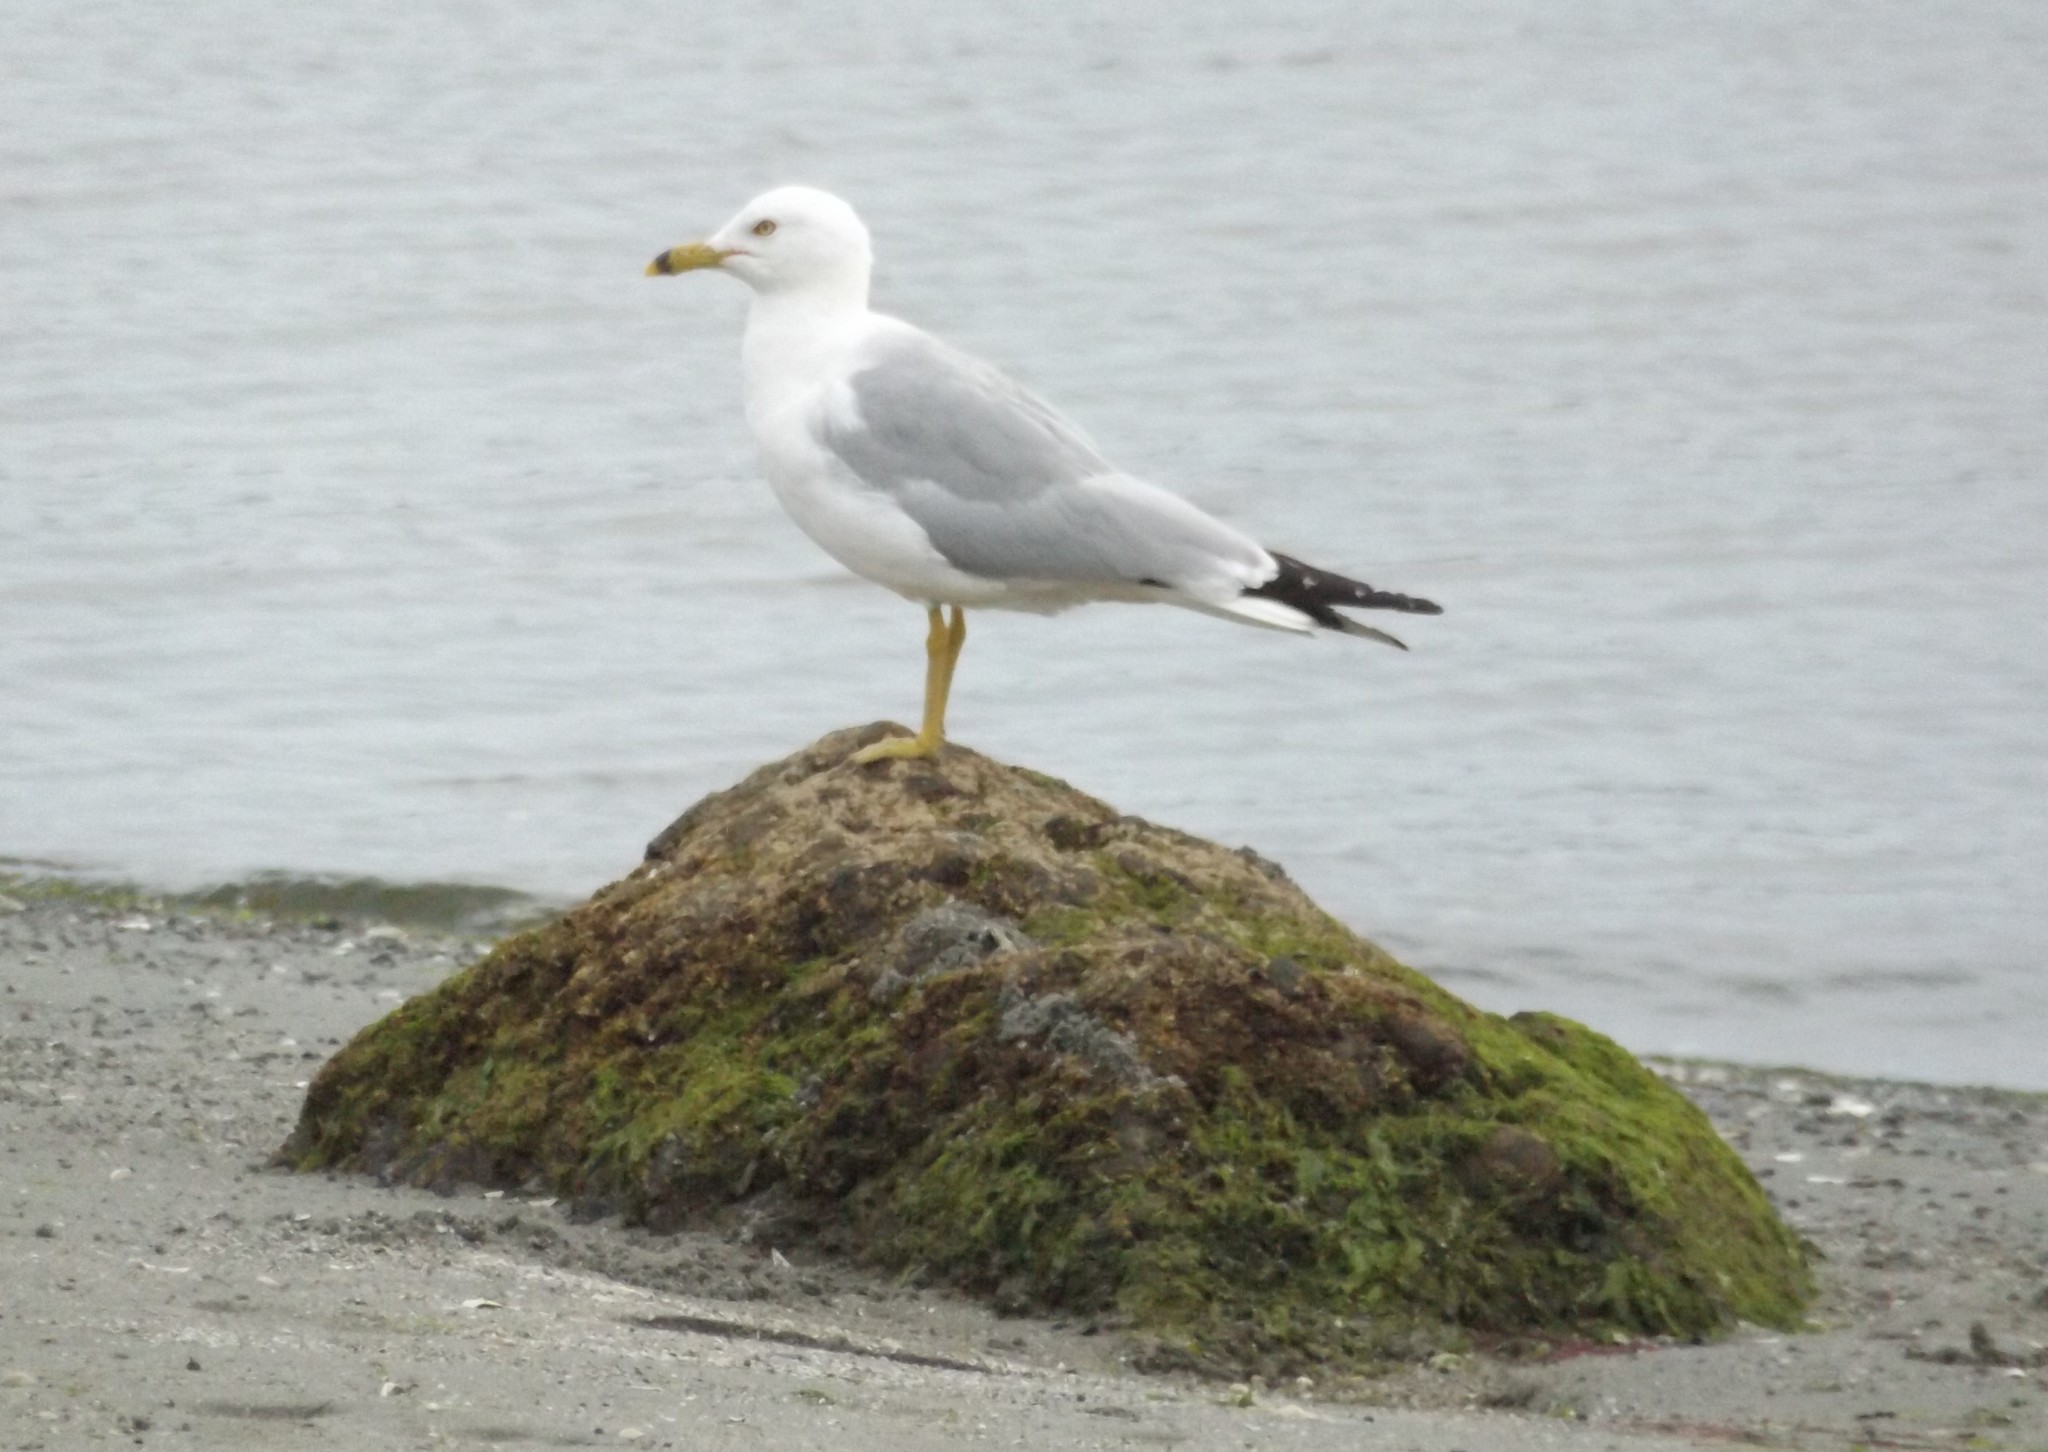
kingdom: Animalia
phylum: Chordata
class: Aves
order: Charadriiformes
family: Laridae
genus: Larus
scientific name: Larus delawarensis
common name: Ring-billed gull
